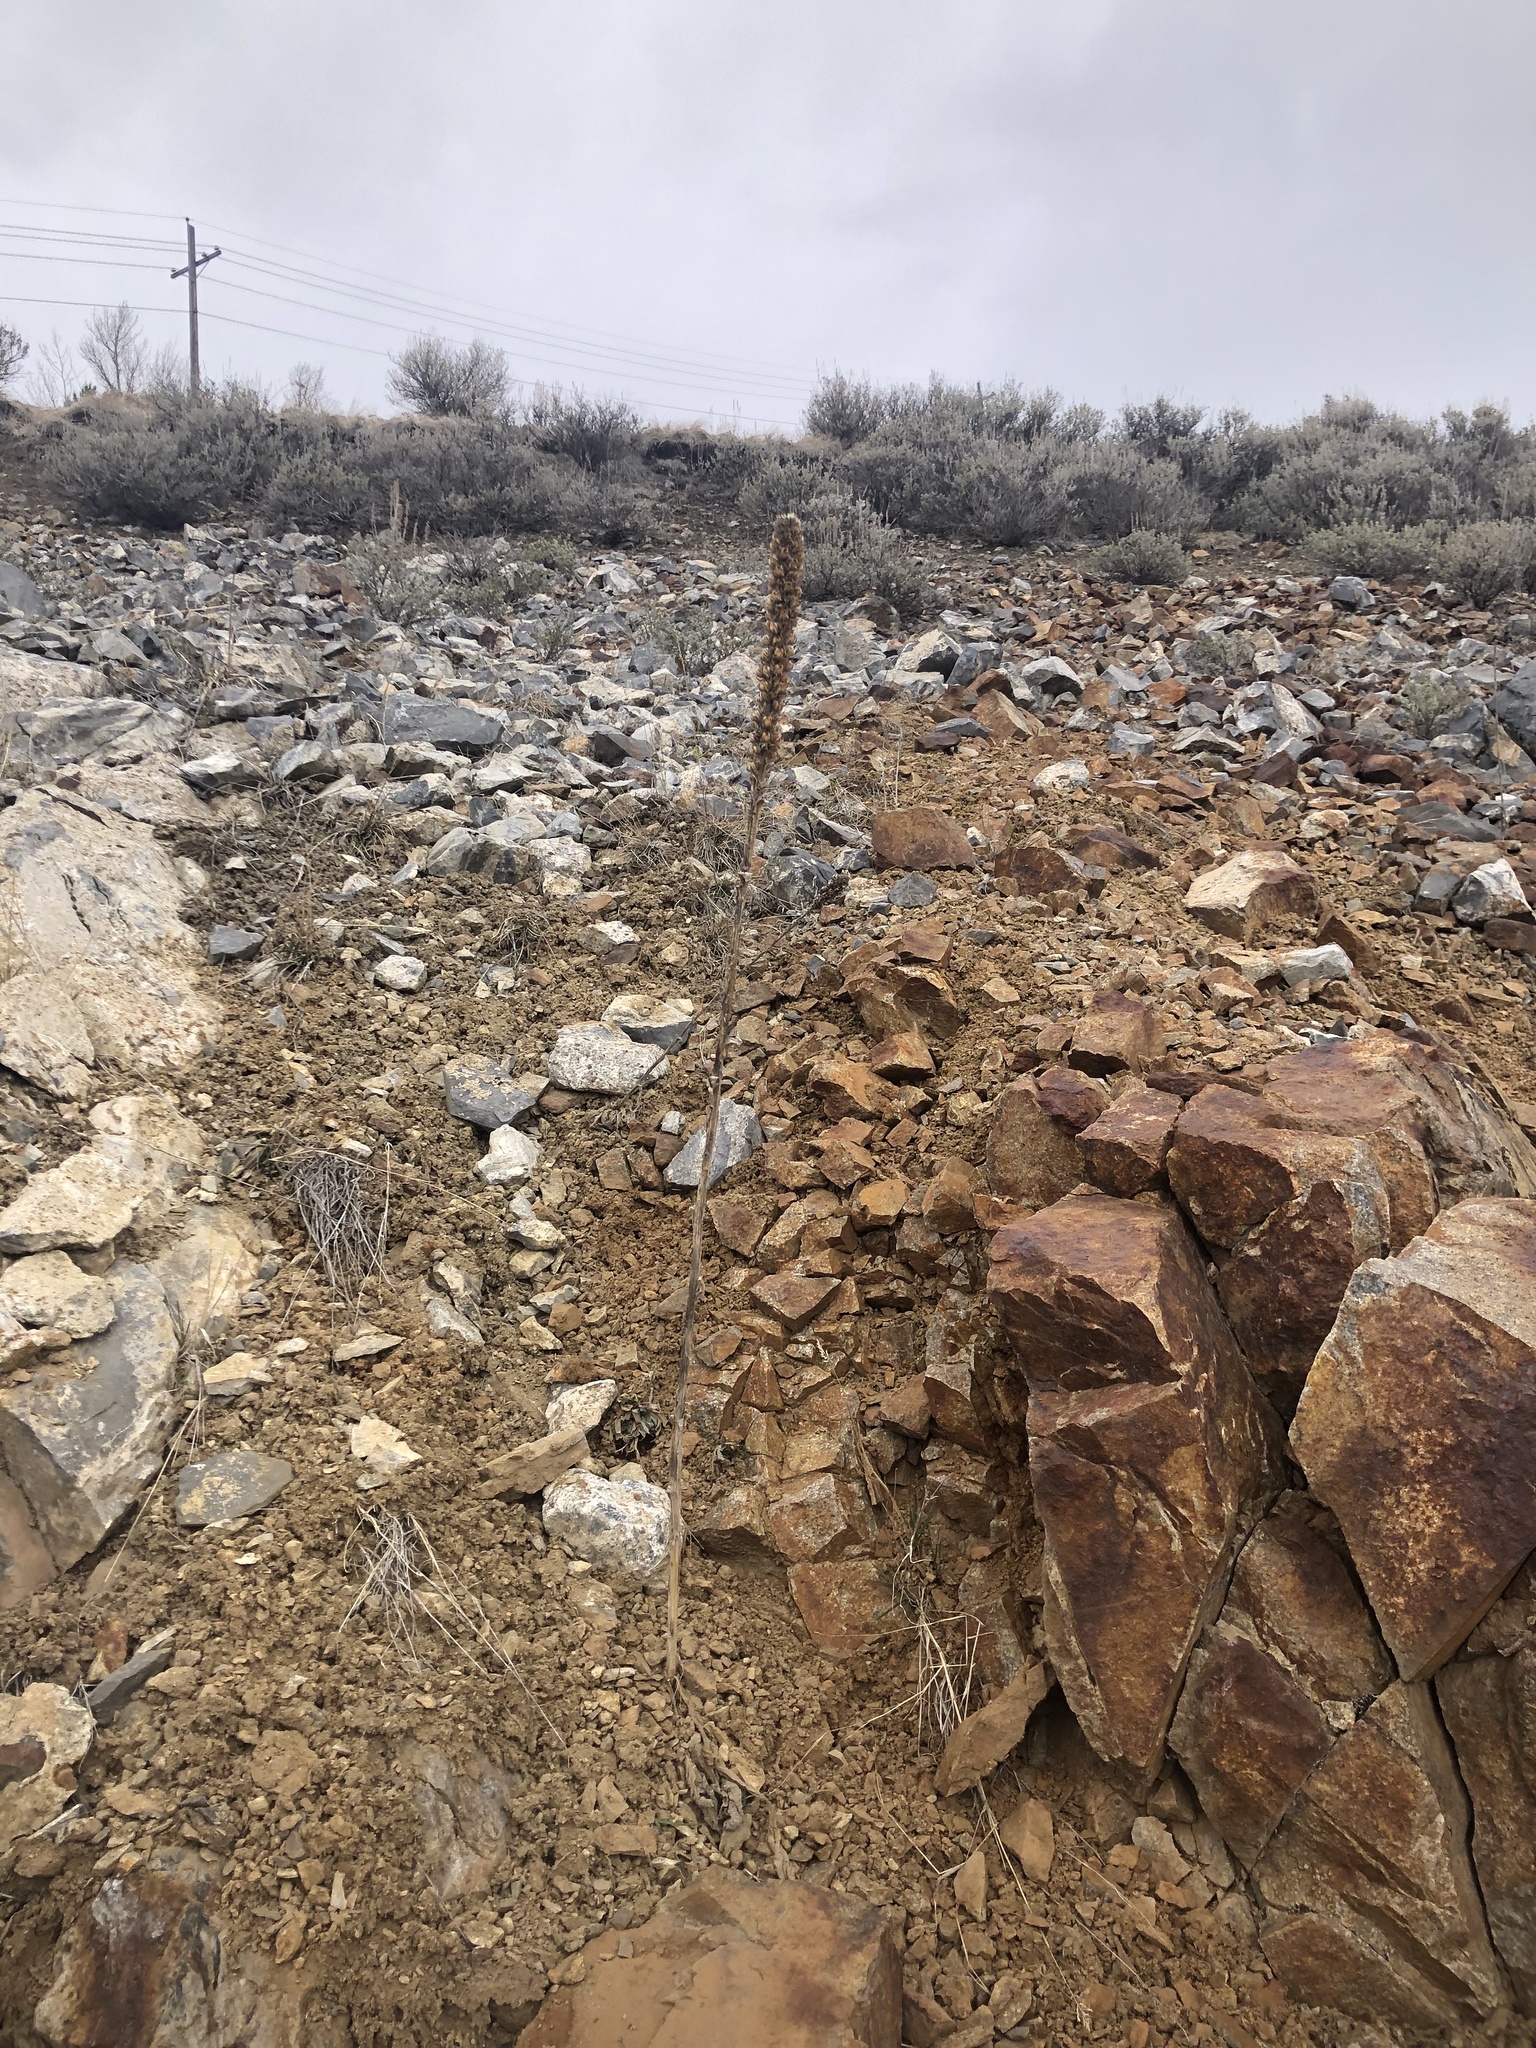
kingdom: Plantae
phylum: Tracheophyta
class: Magnoliopsida
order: Lamiales
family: Scrophulariaceae
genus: Verbascum
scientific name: Verbascum thapsus
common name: Common mullein
